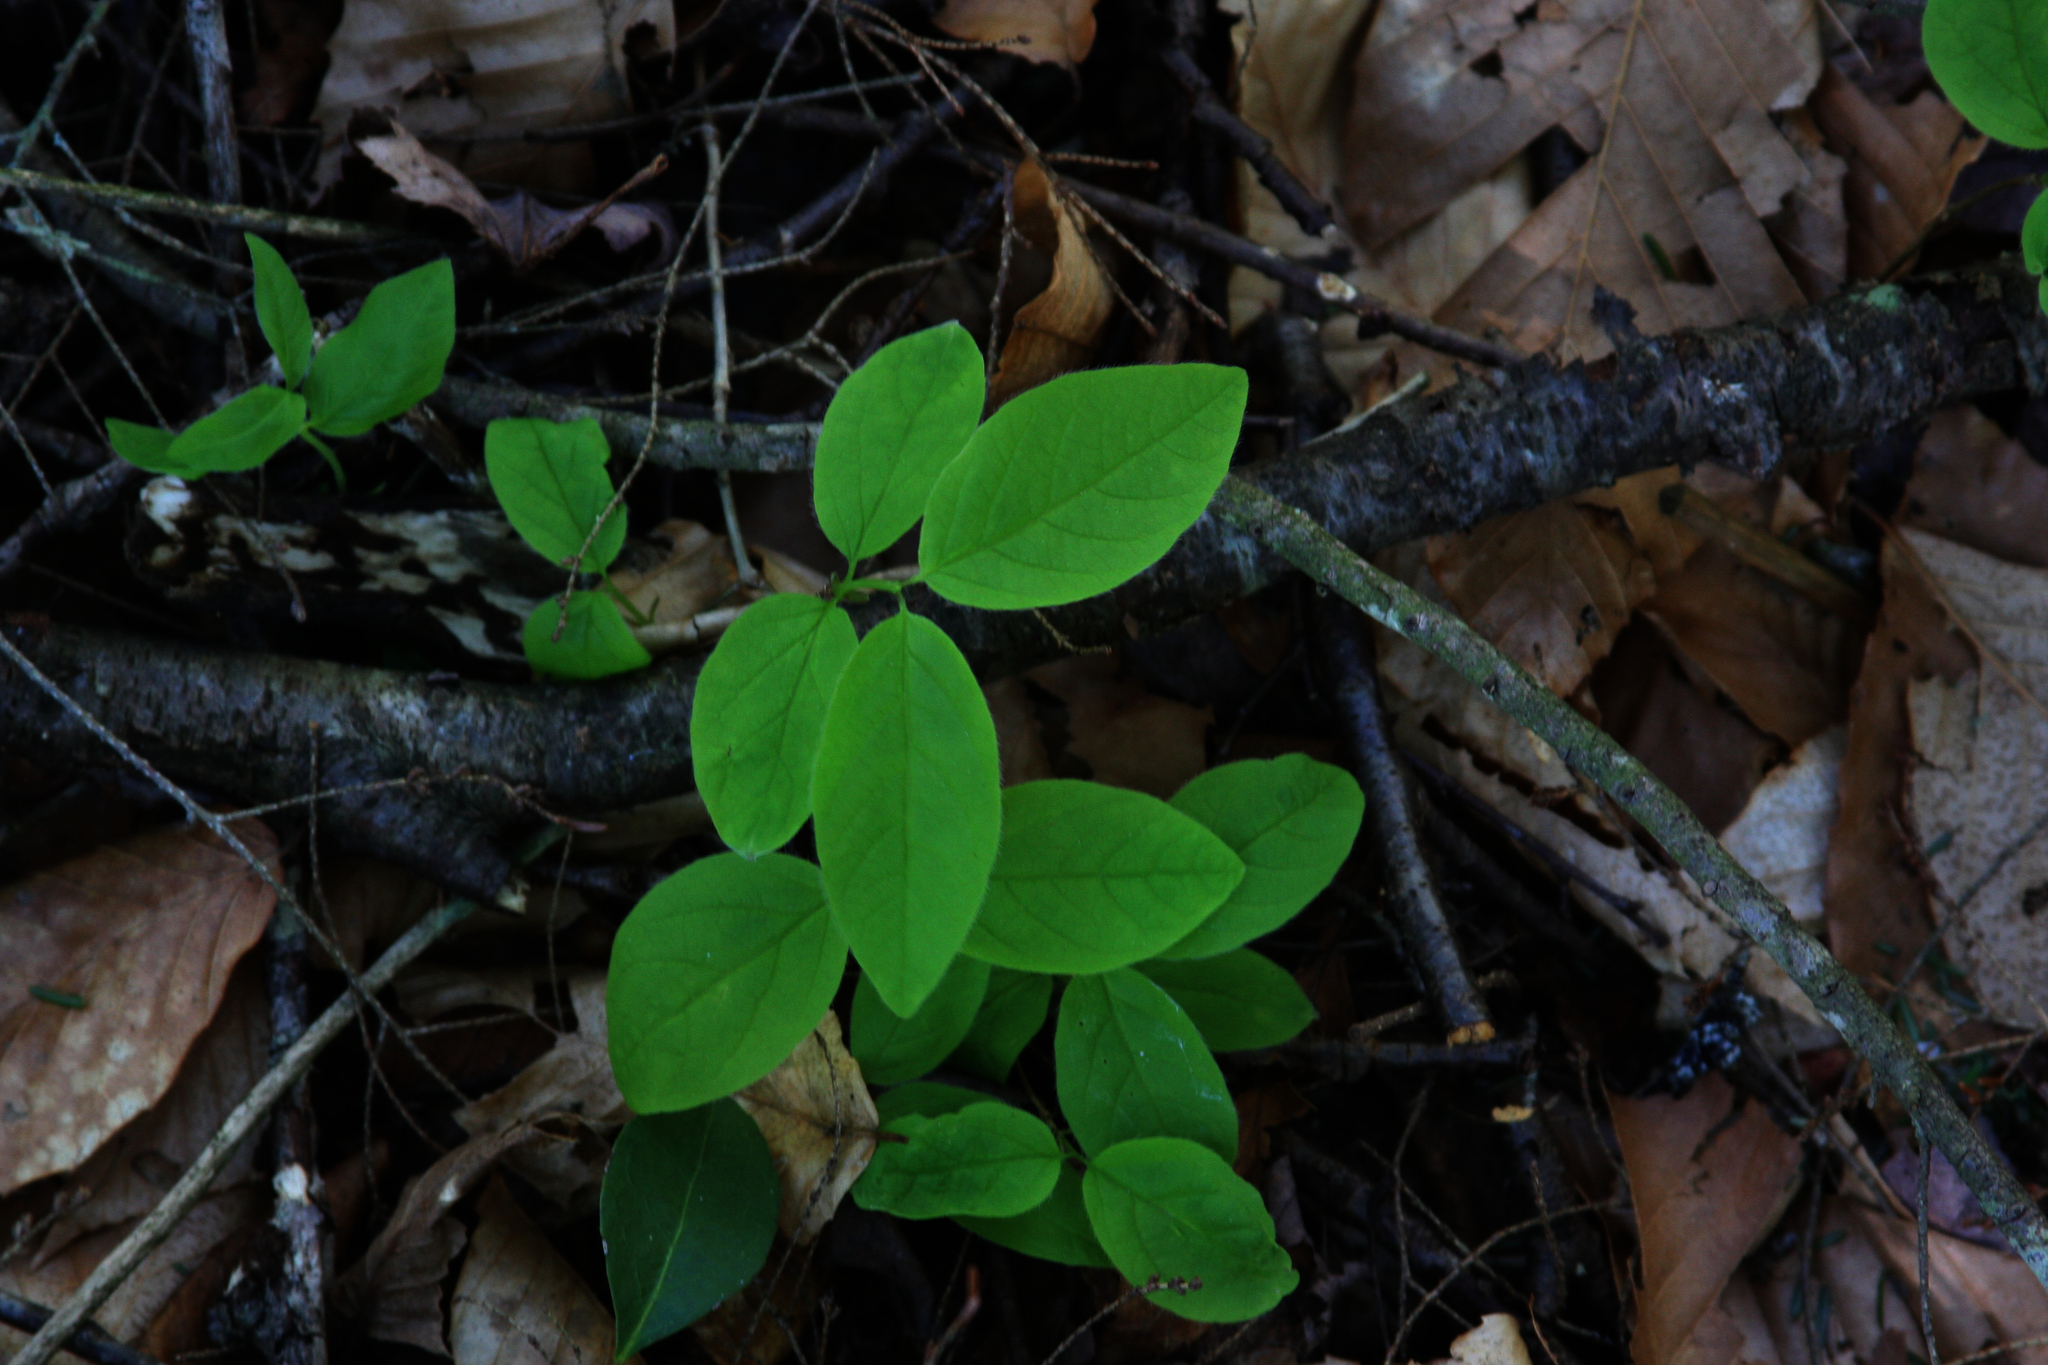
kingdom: Plantae
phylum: Tracheophyta
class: Magnoliopsida
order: Dipsacales
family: Caprifoliaceae
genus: Lonicera
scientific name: Lonicera canadensis
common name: American fly-honeysuckle
